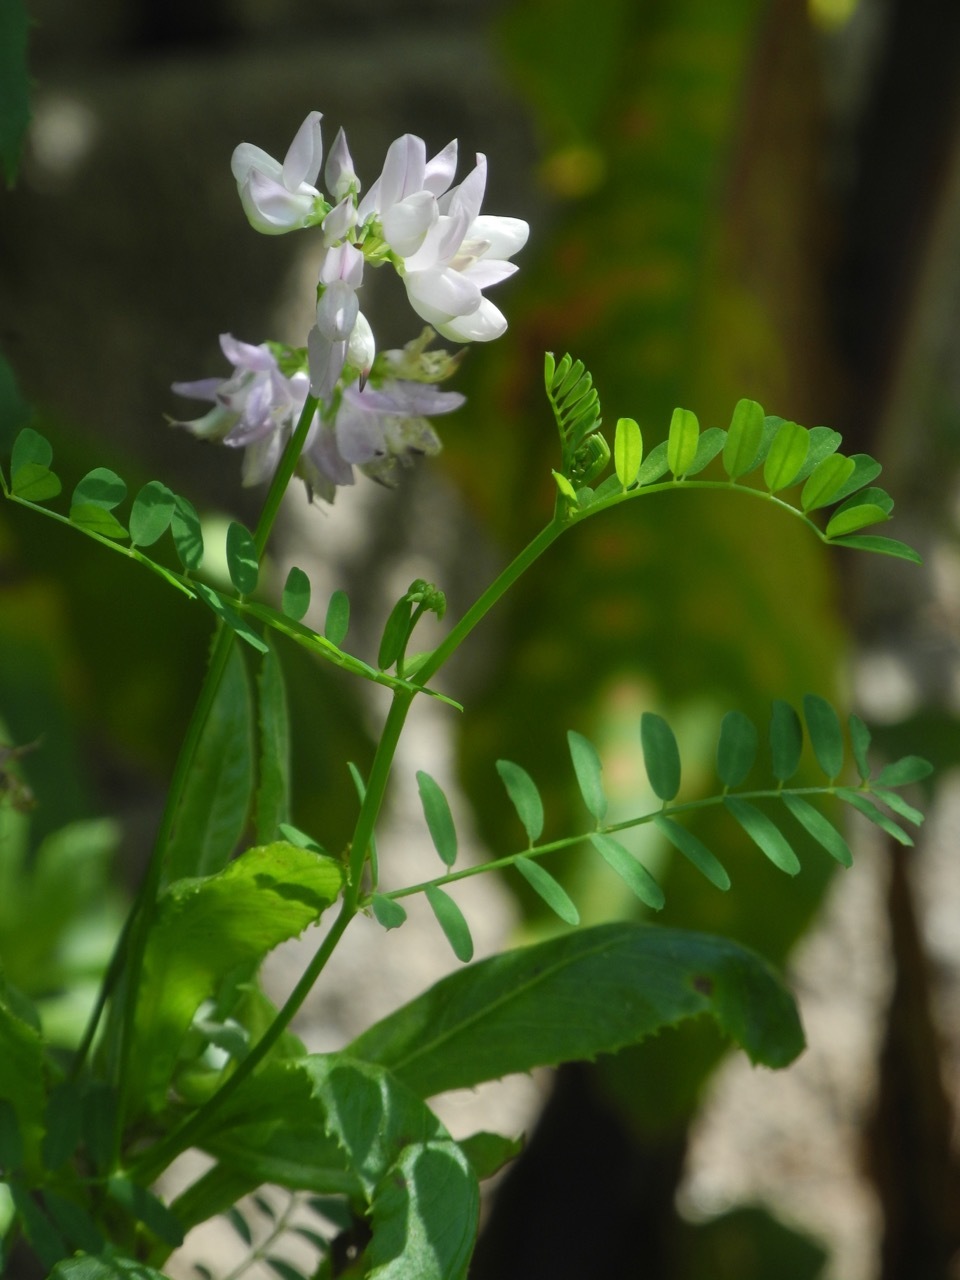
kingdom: Plantae
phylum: Tracheophyta
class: Magnoliopsida
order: Fabales
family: Fabaceae
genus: Coronilla
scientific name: Coronilla varia
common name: Crownvetch
